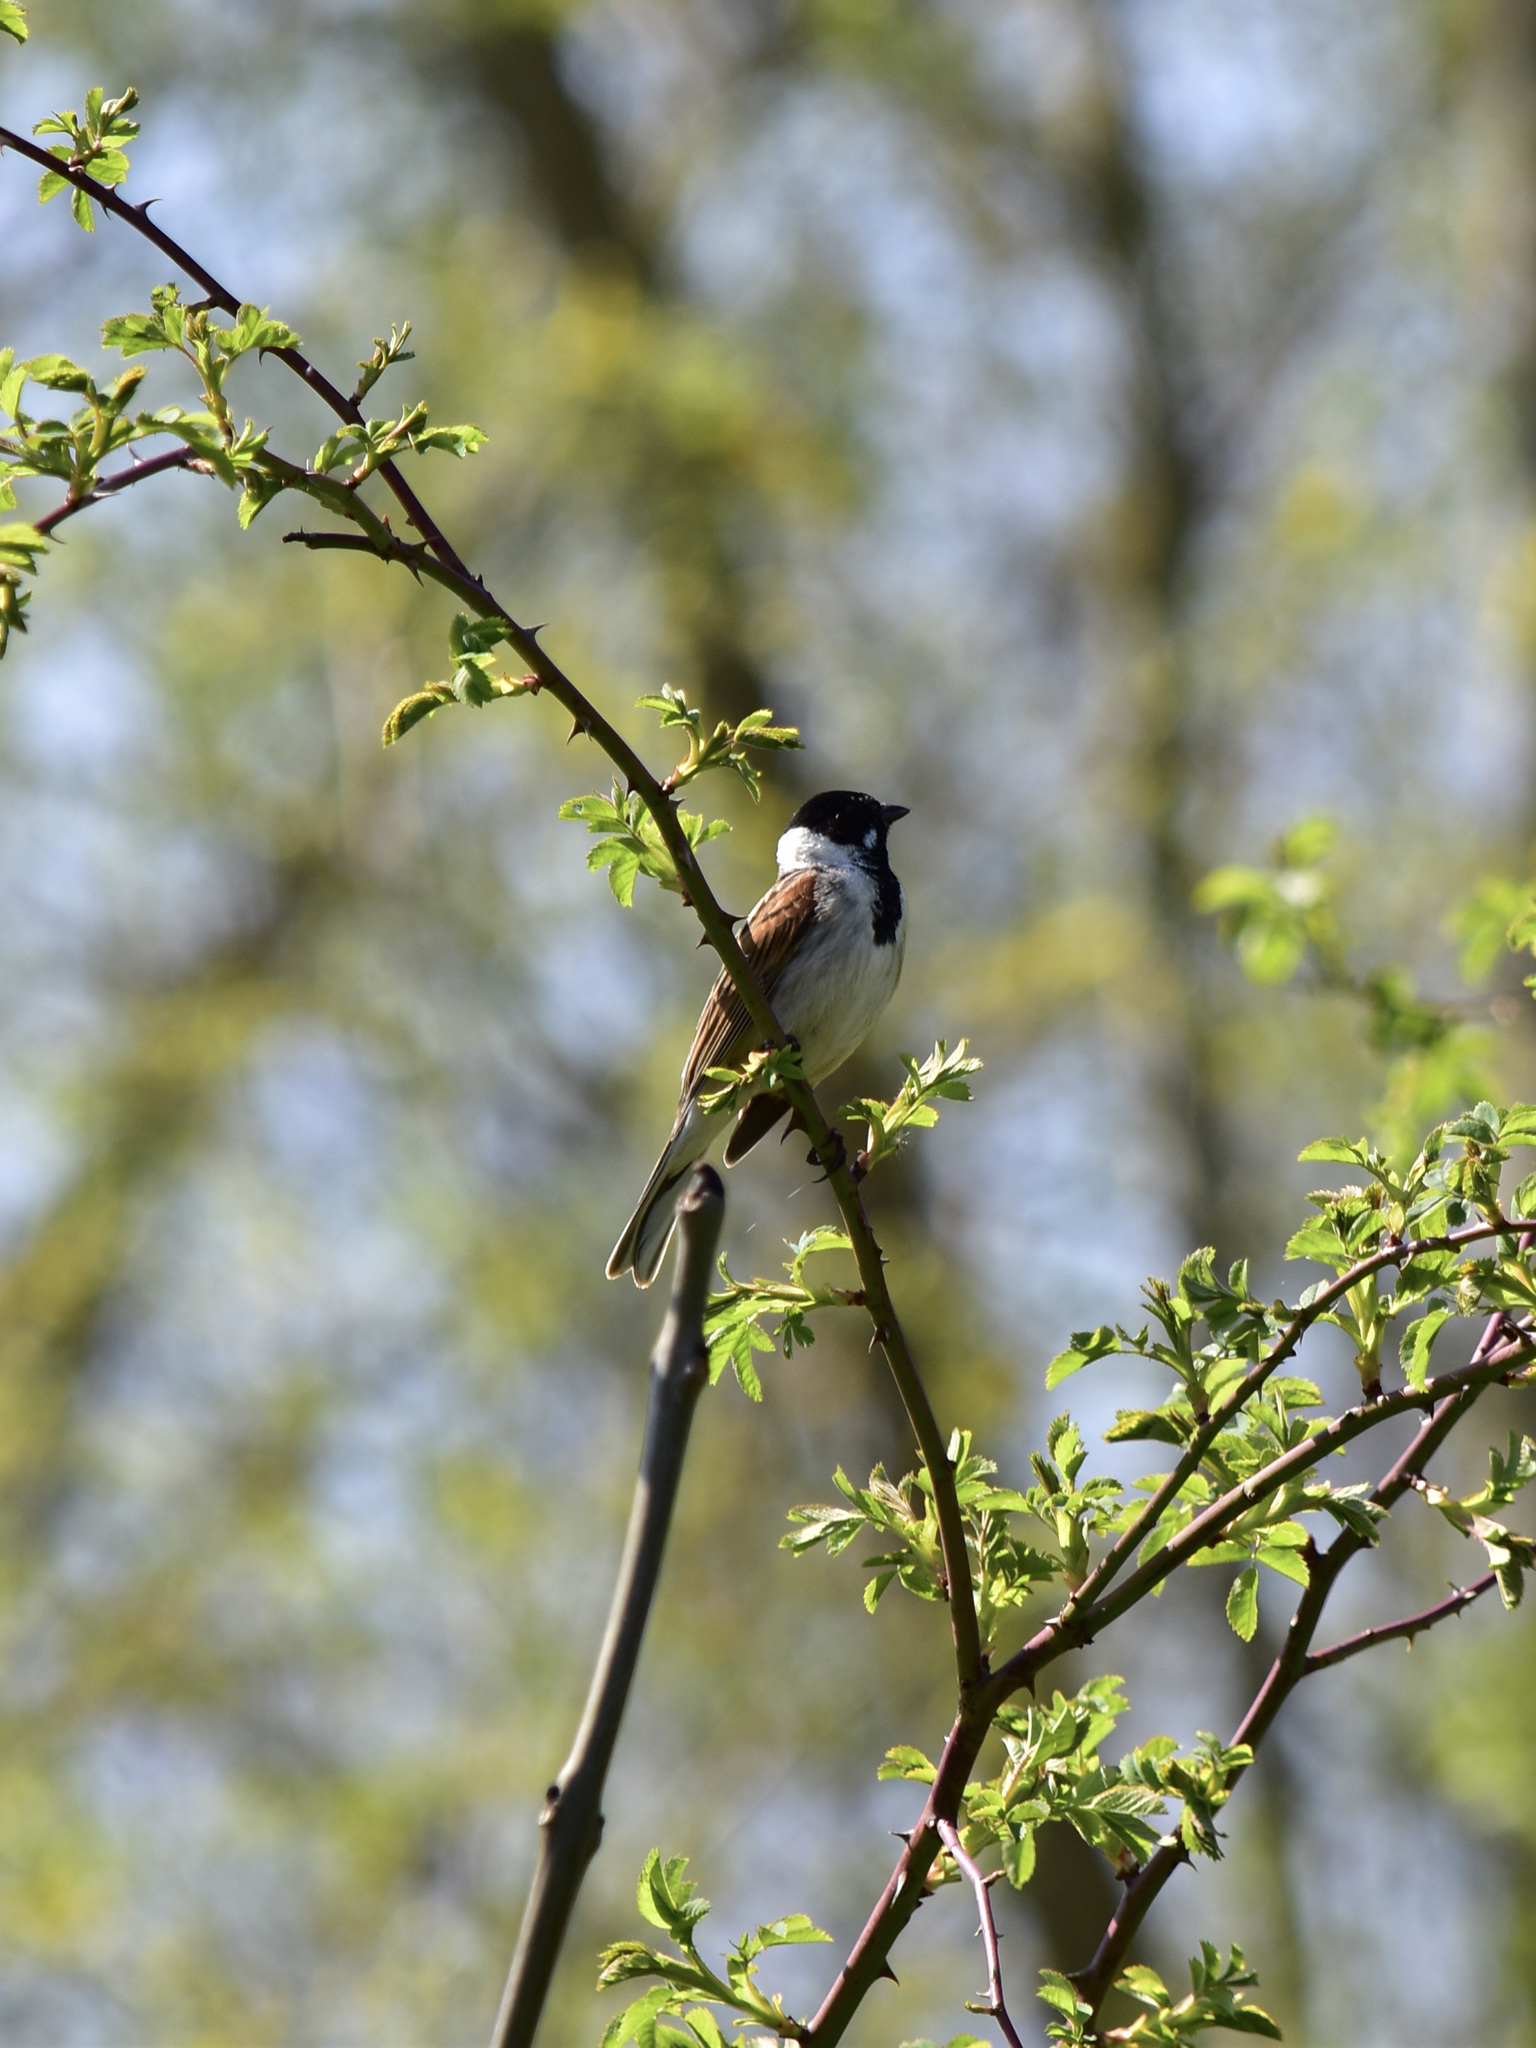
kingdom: Animalia
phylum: Chordata
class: Aves
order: Passeriformes
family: Emberizidae
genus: Emberiza
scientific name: Emberiza schoeniclus
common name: Reed bunting
